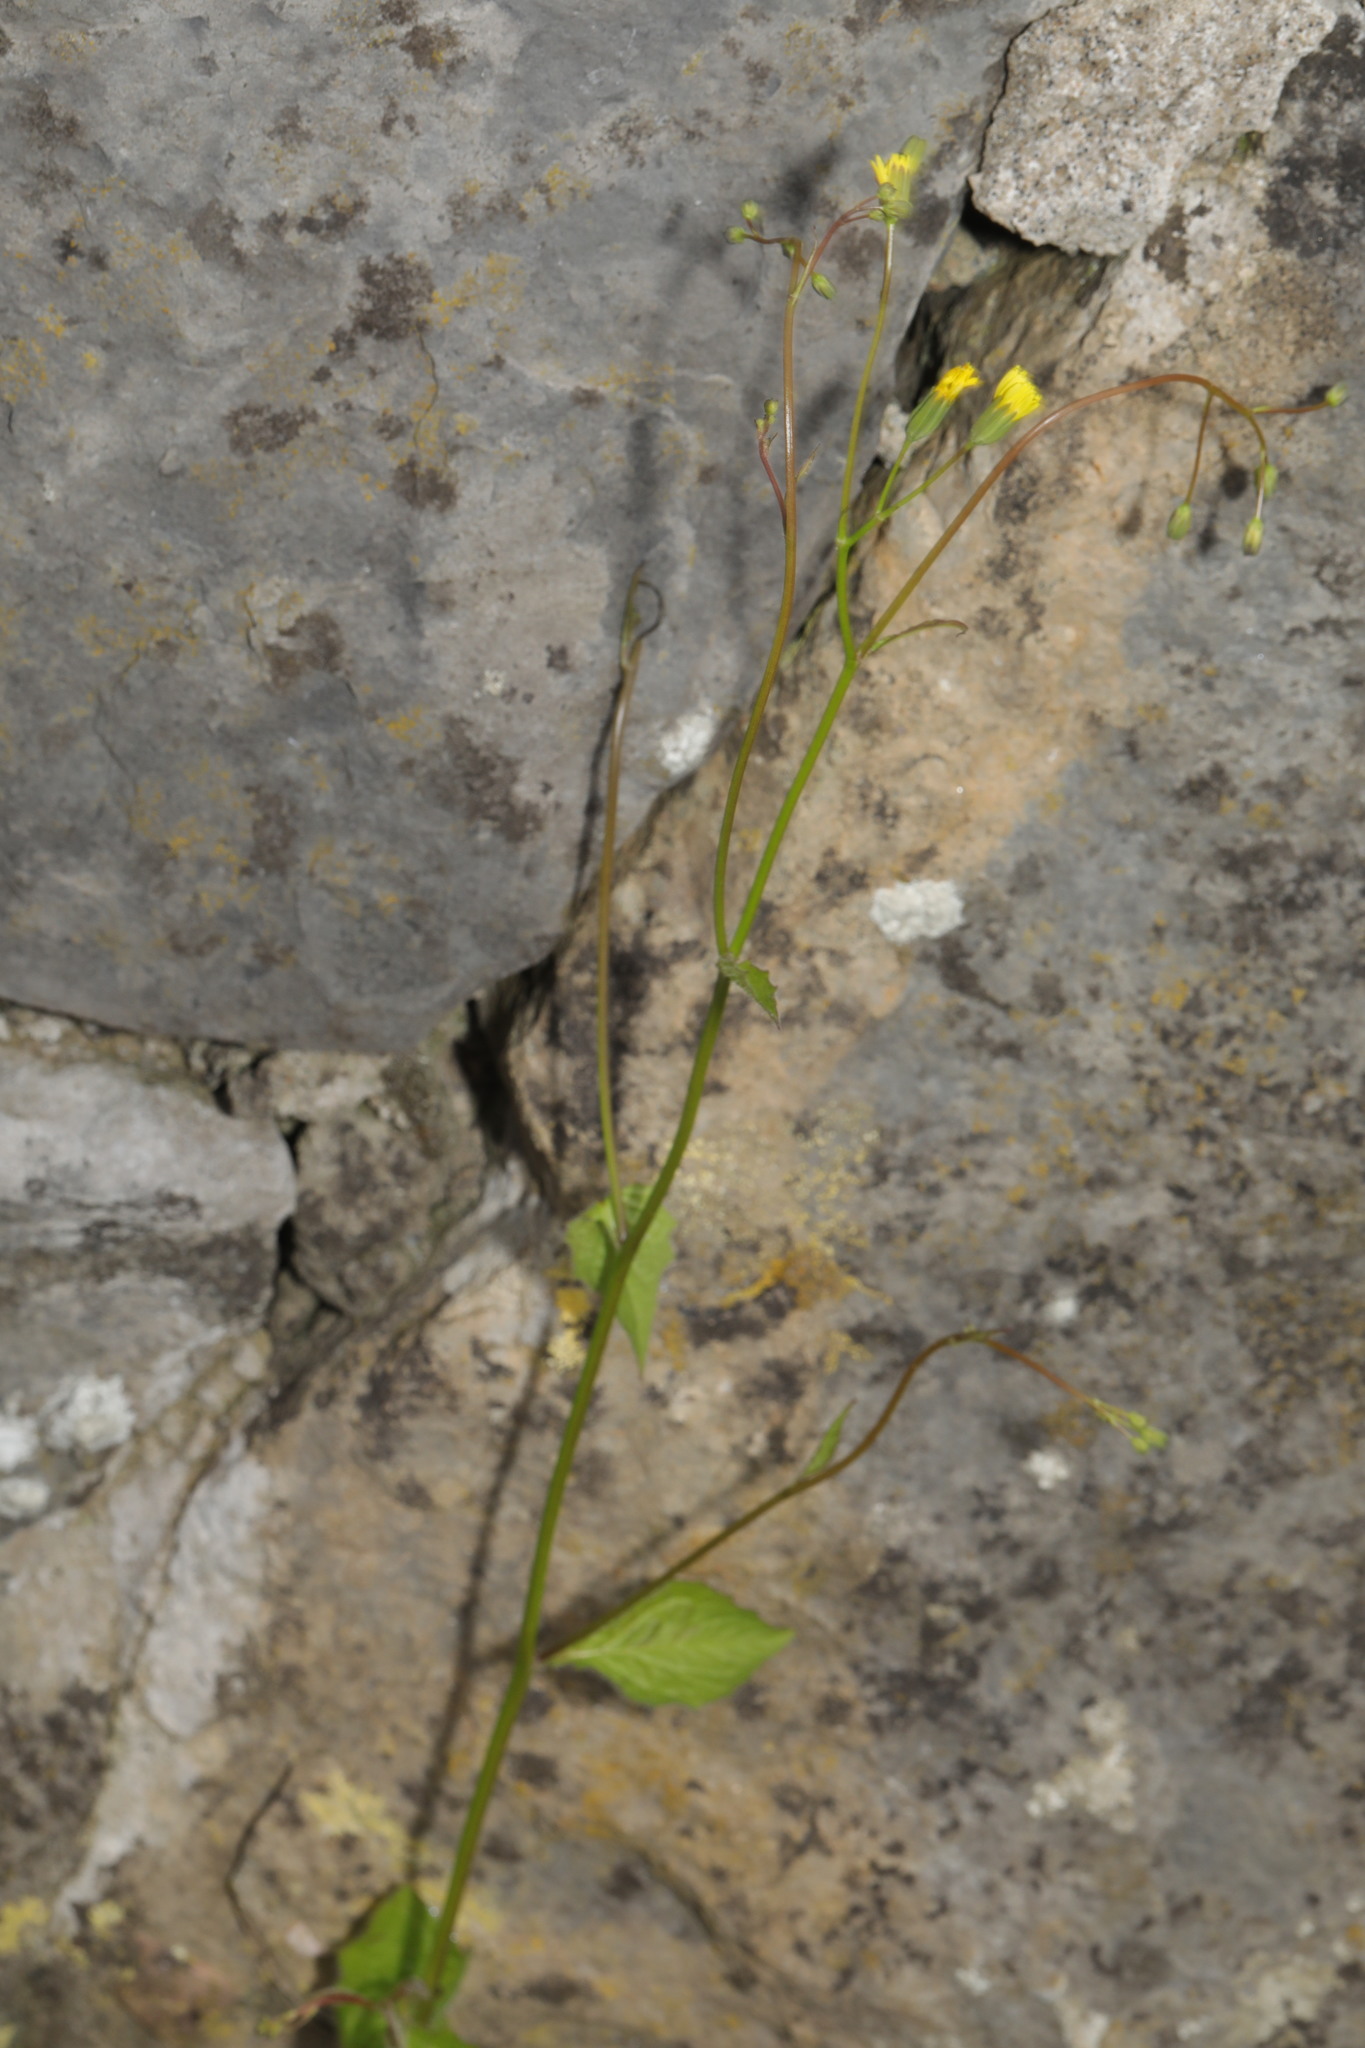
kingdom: Plantae
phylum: Tracheophyta
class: Magnoliopsida
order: Asterales
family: Asteraceae
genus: Lapsana
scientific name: Lapsana communis
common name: Nipplewort
